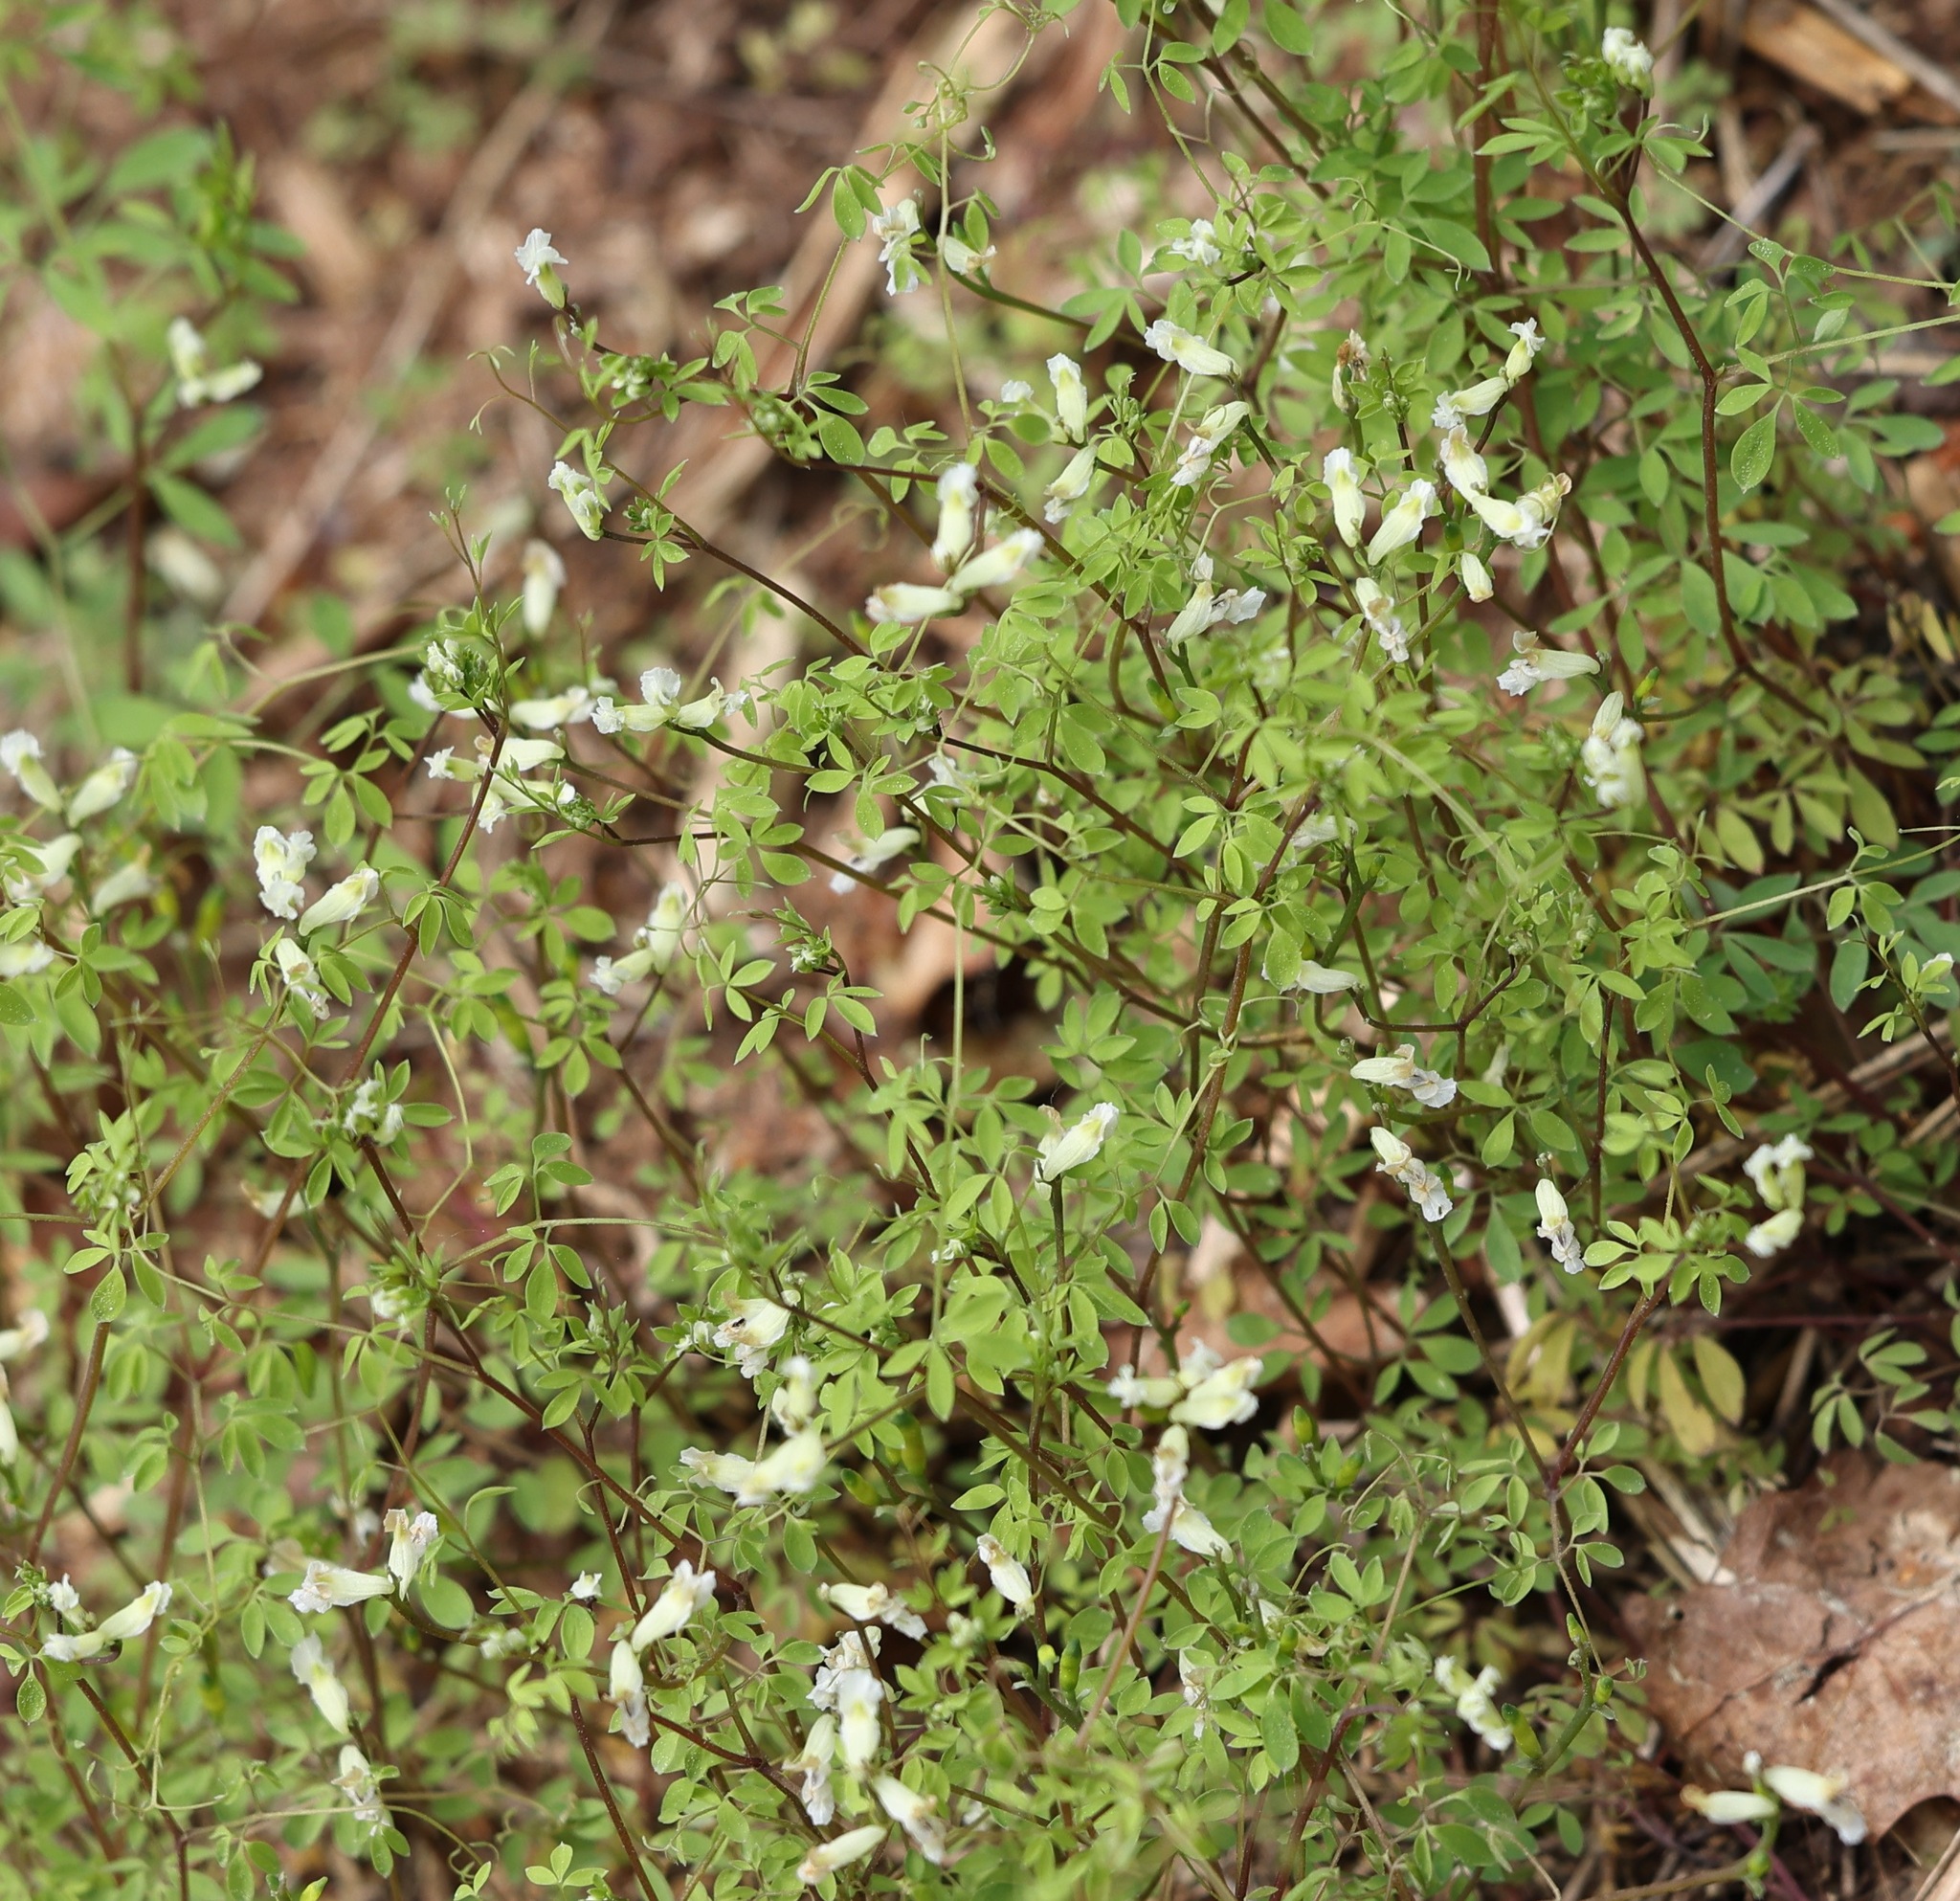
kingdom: Plantae
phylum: Tracheophyta
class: Magnoliopsida
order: Ranunculales
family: Papaveraceae
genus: Ceratocapnos
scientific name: Ceratocapnos claviculata
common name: Climbing corydalis
